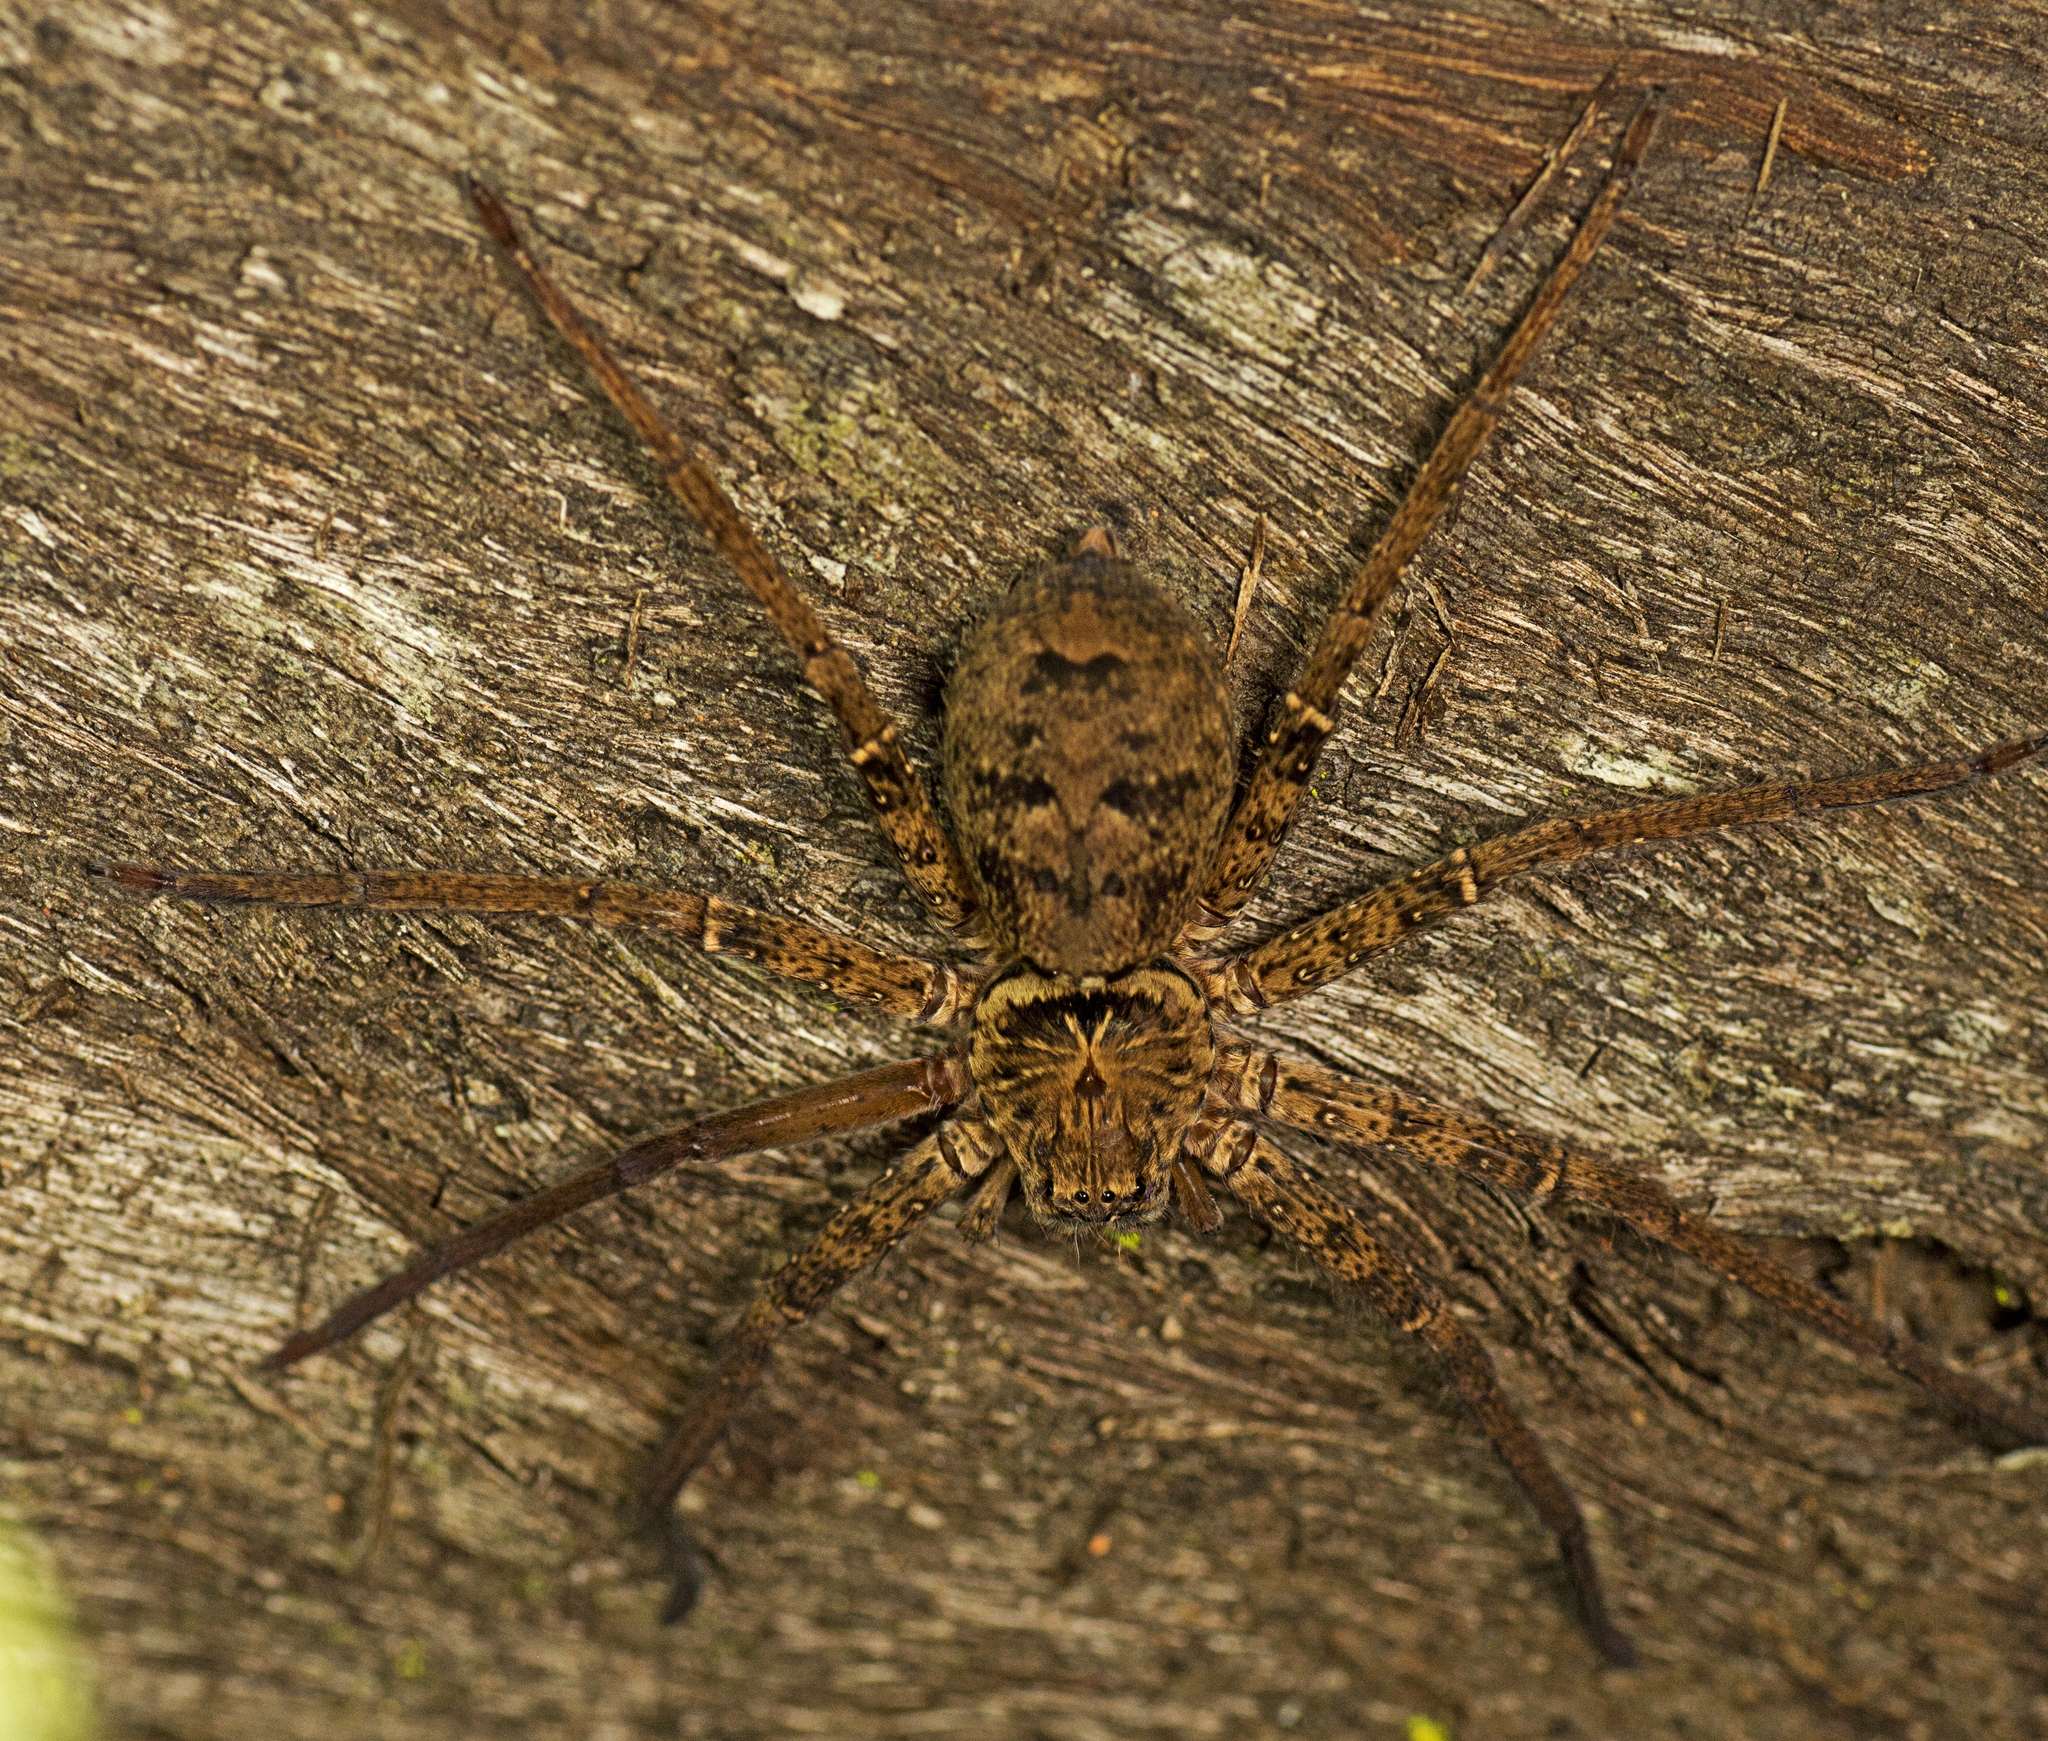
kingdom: Animalia
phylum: Arthropoda
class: Arachnida
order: Araneae
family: Sparassidae
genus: Heteropoda
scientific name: Heteropoda jugulans
